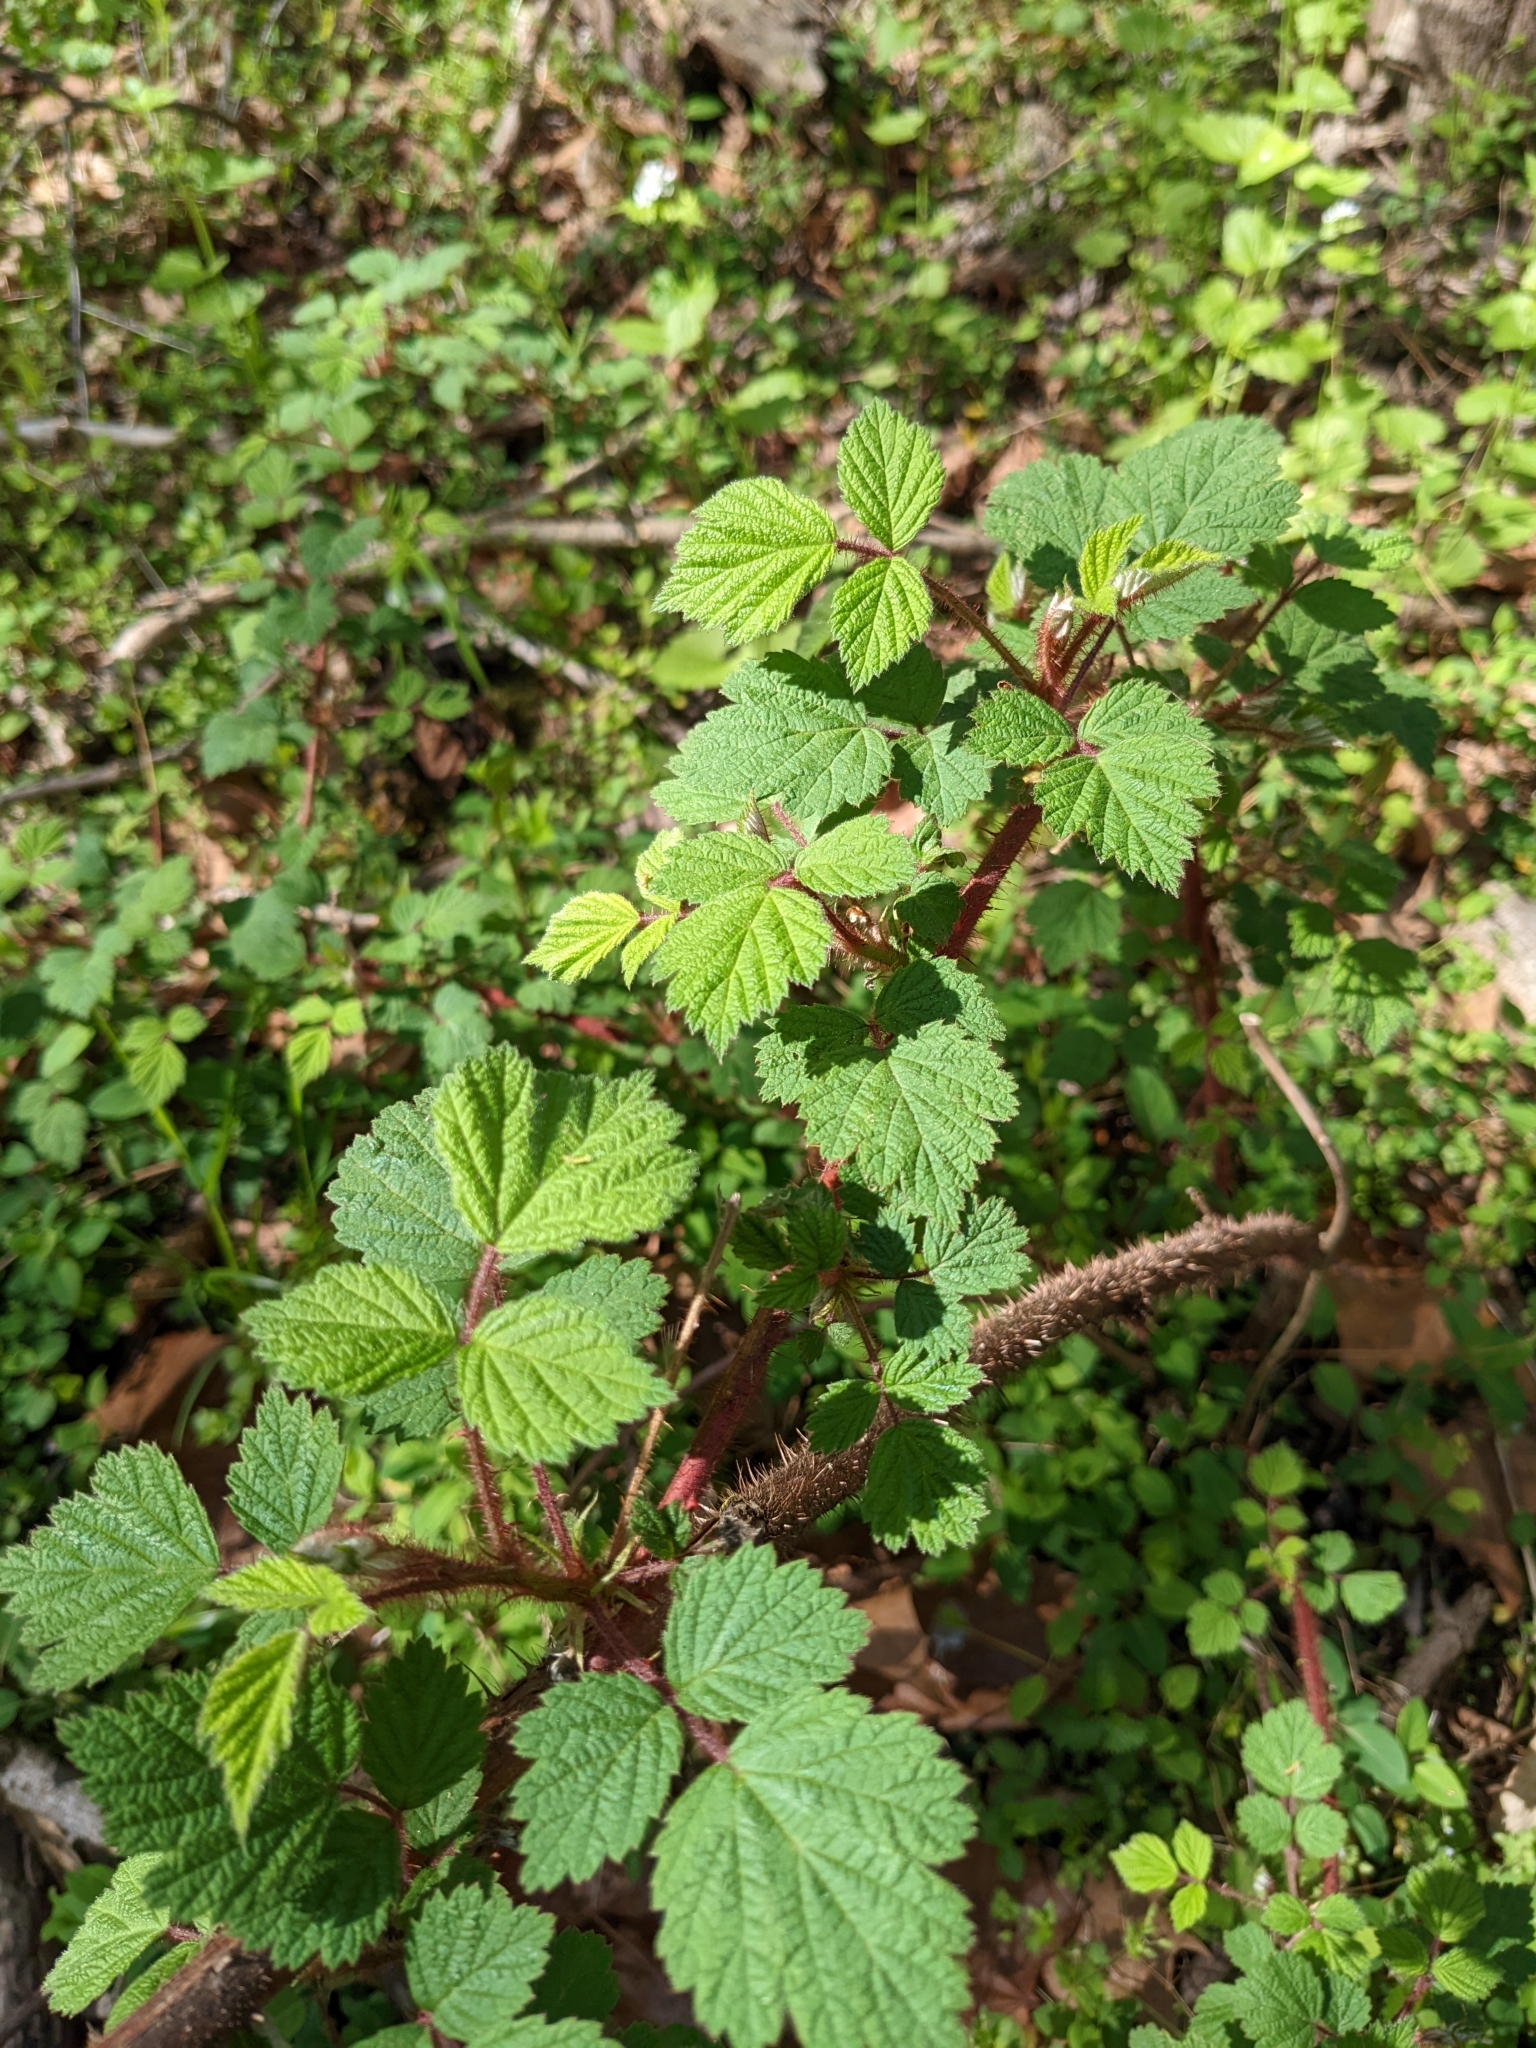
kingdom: Plantae
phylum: Tracheophyta
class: Magnoliopsida
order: Rosales
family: Rosaceae
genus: Rubus
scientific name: Rubus phoenicolasius
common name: Japanese wineberry
